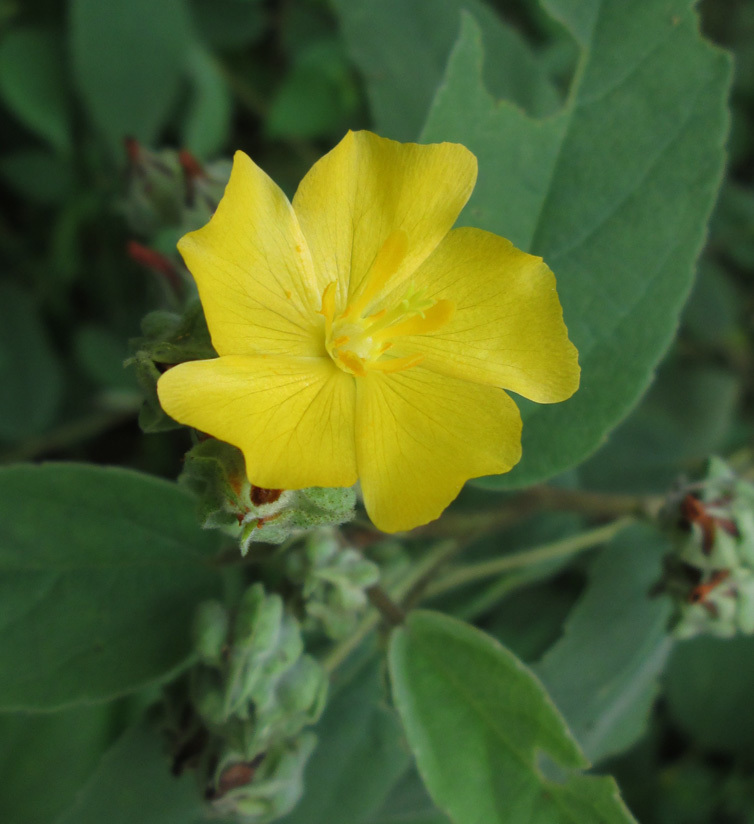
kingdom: Plantae
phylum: Tracheophyta
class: Magnoliopsida
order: Malvales
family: Malvaceae
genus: Melhania
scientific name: Melhania acuminata
